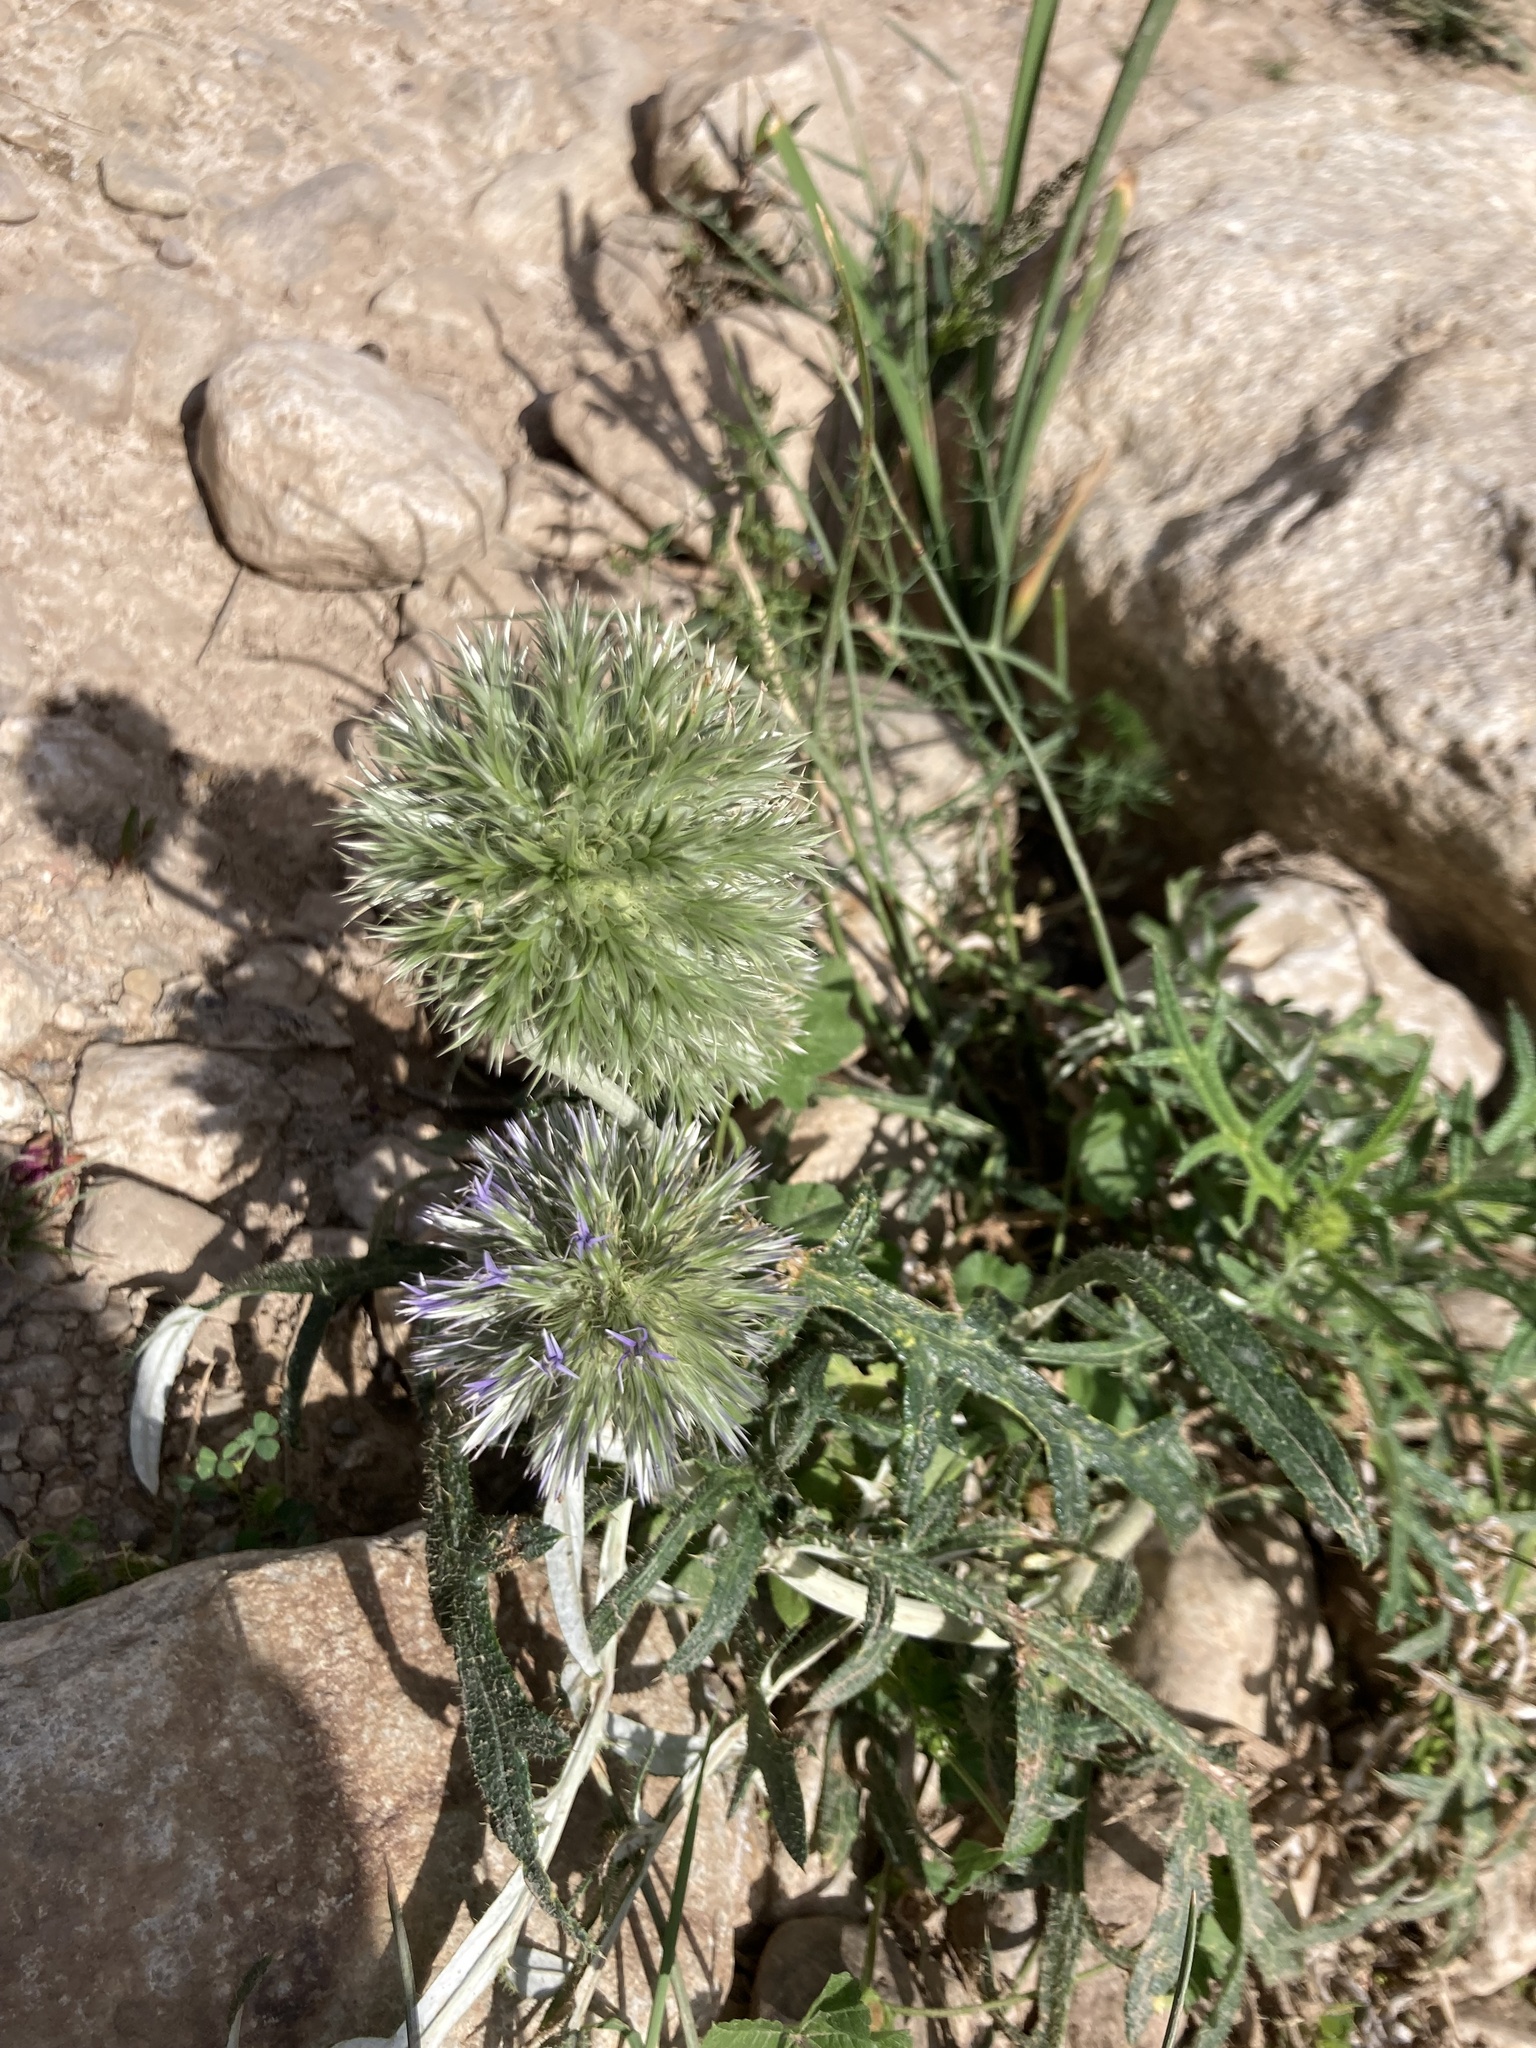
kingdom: Plantae
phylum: Tracheophyta
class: Magnoliopsida
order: Asterales
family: Asteraceae
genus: Echinops
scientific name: Echinops strigosus
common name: Rough-leaf globe thistle
